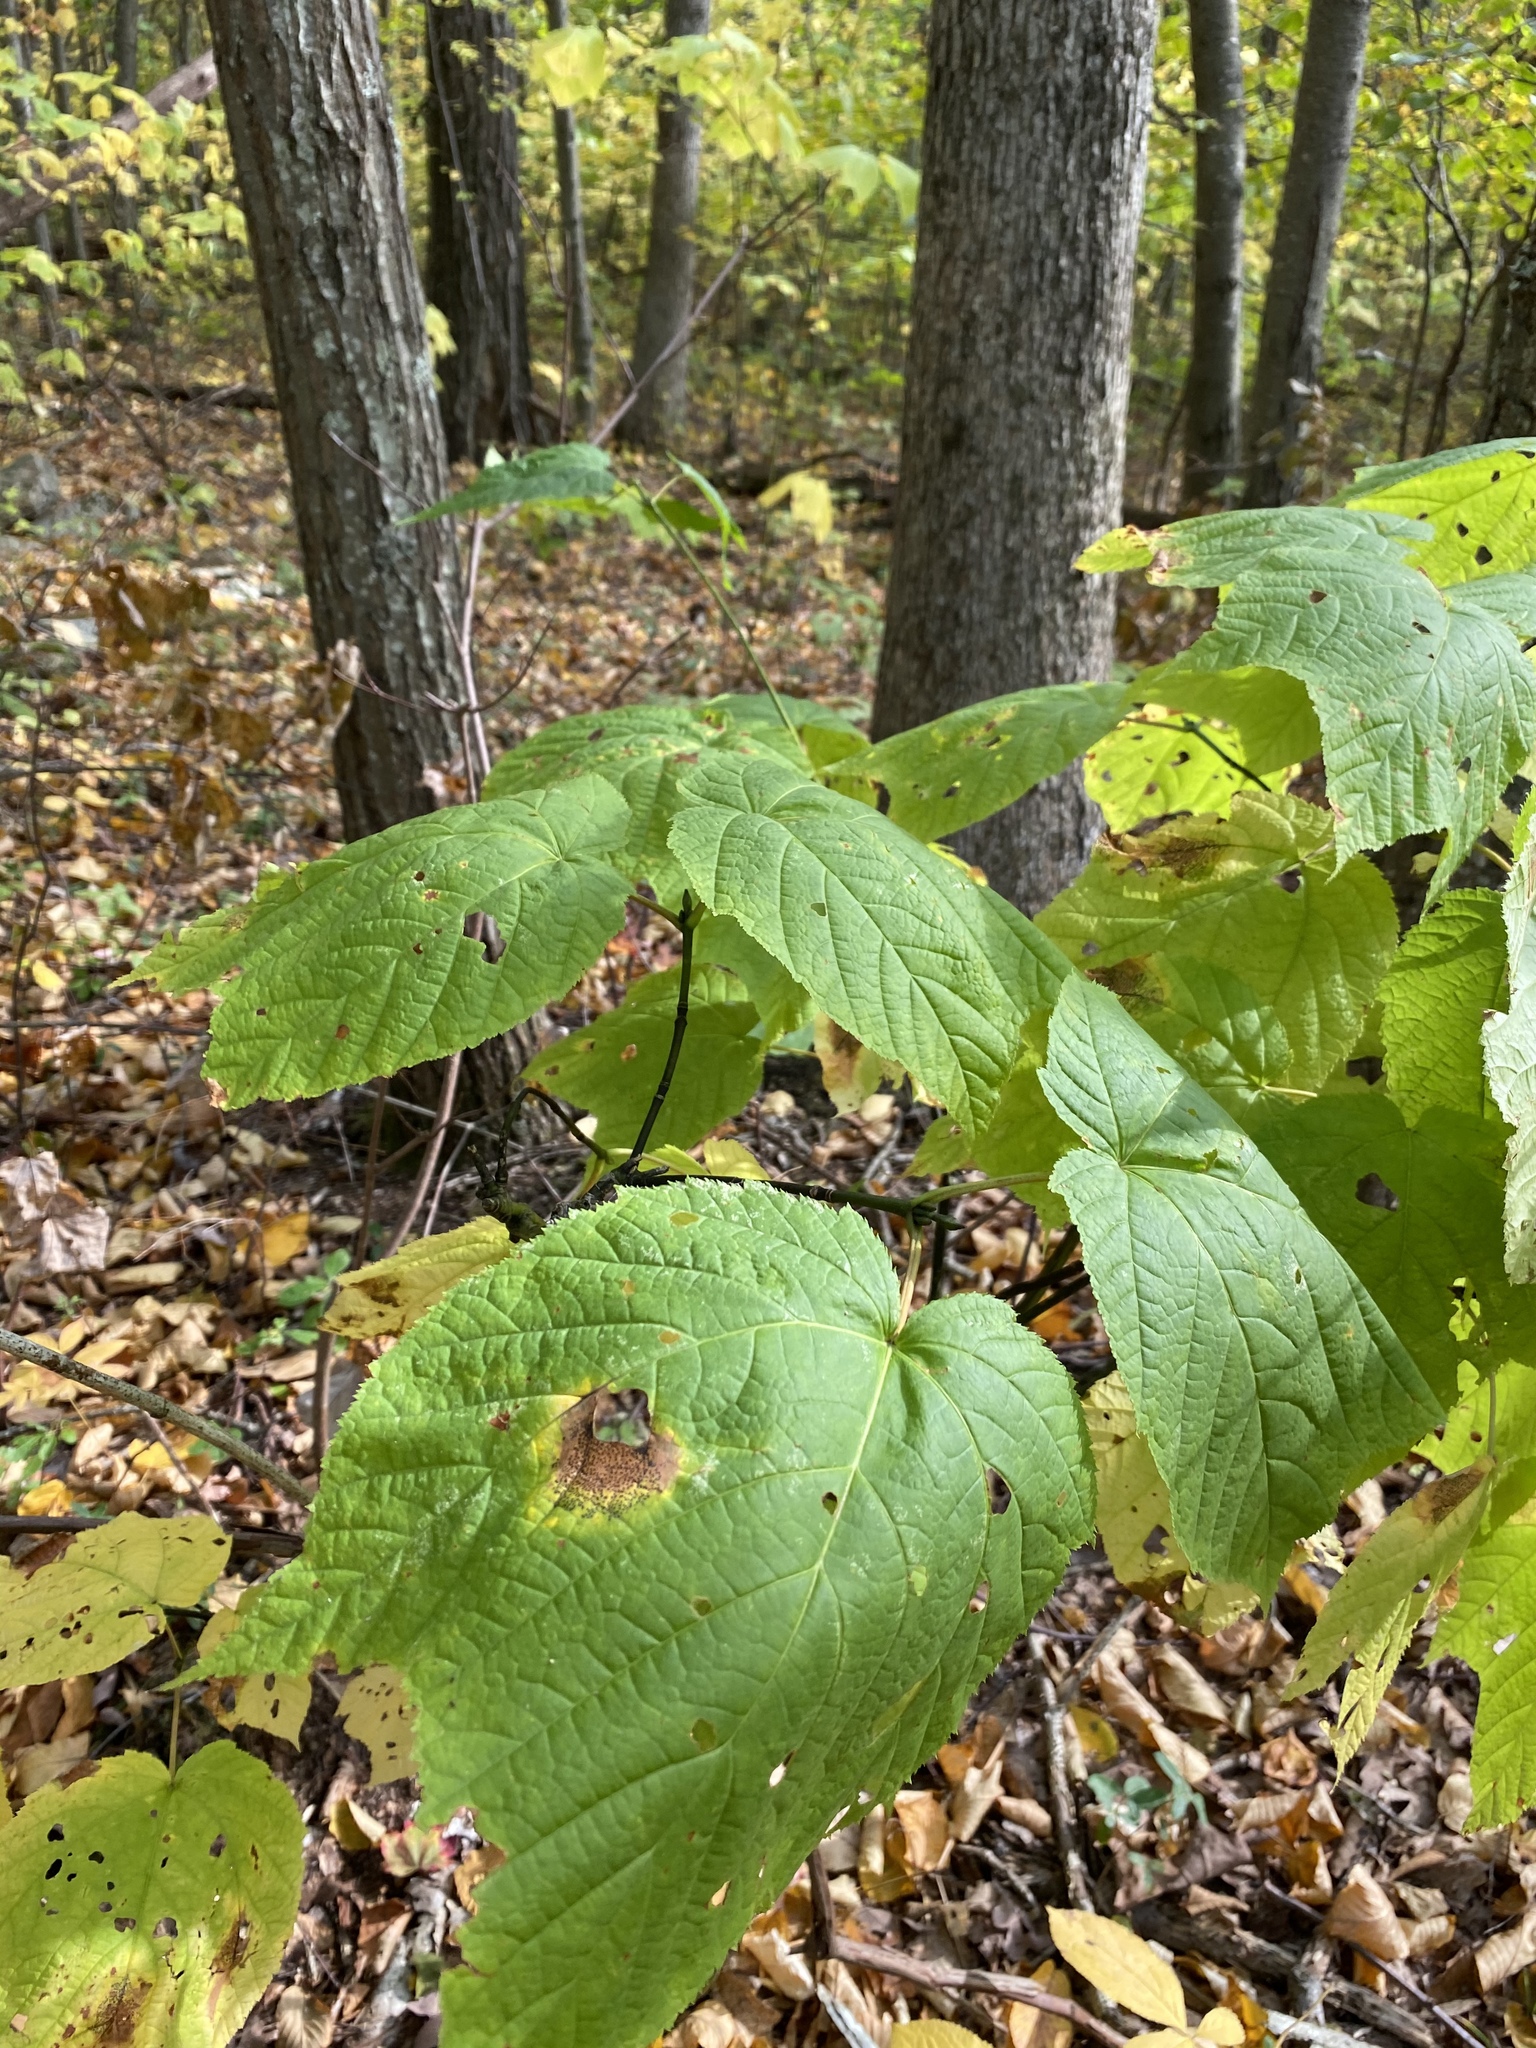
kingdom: Fungi
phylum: Ascomycota
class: Leotiomycetes
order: Rhytismatales
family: Rhytismataceae
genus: Rhytisma
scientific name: Rhytisma punctatum
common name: Speckled tar spot
